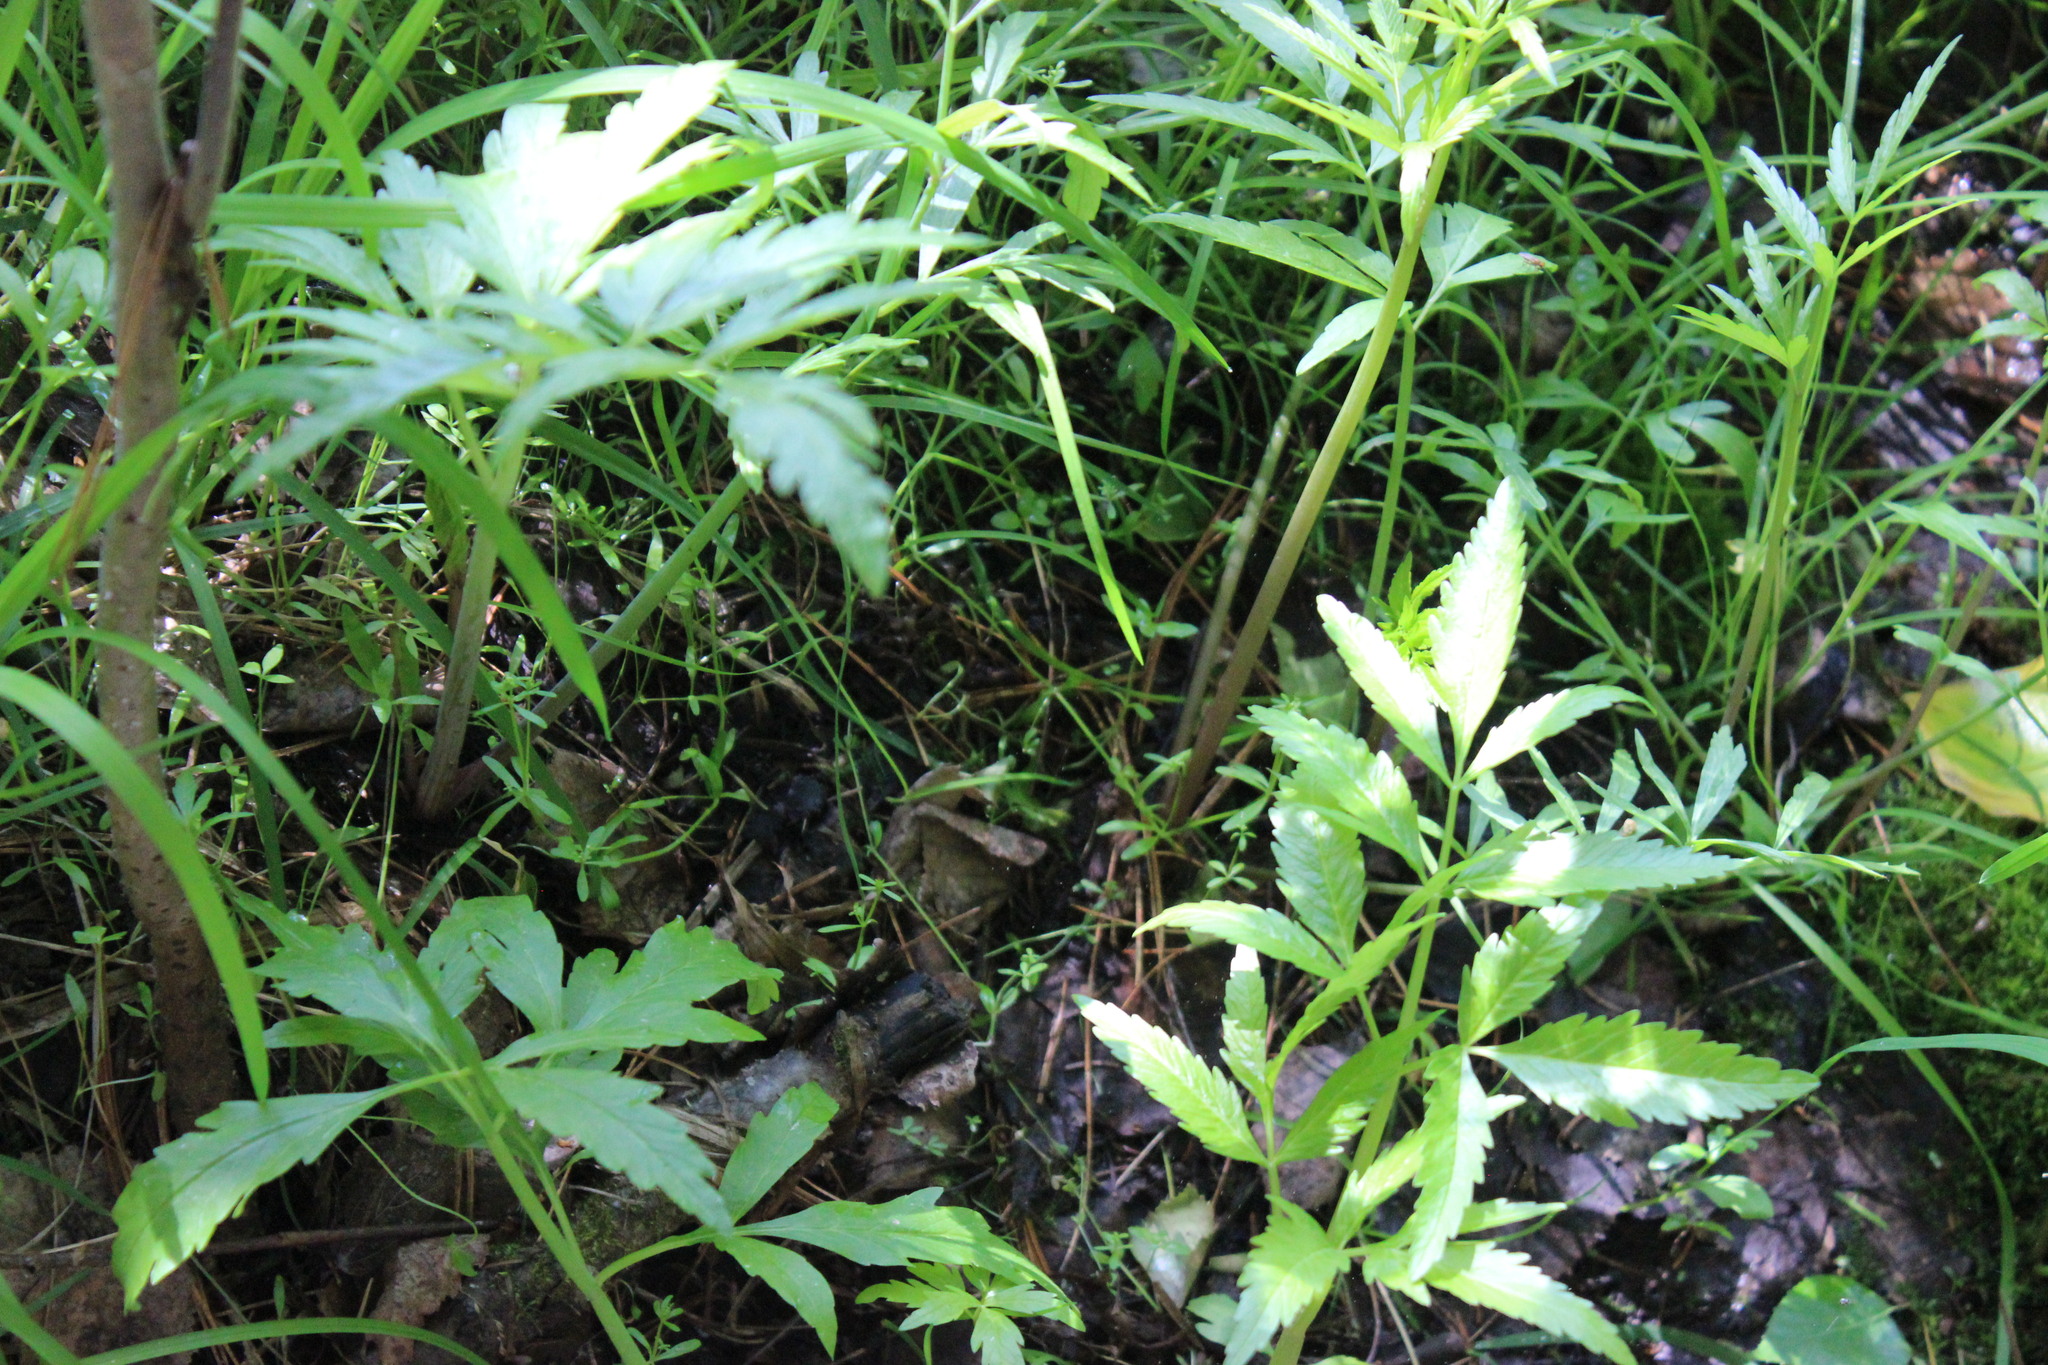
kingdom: Plantae
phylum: Tracheophyta
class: Magnoliopsida
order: Apiales
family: Apiaceae
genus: Cicuta
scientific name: Cicuta virosa
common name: Cowbane
